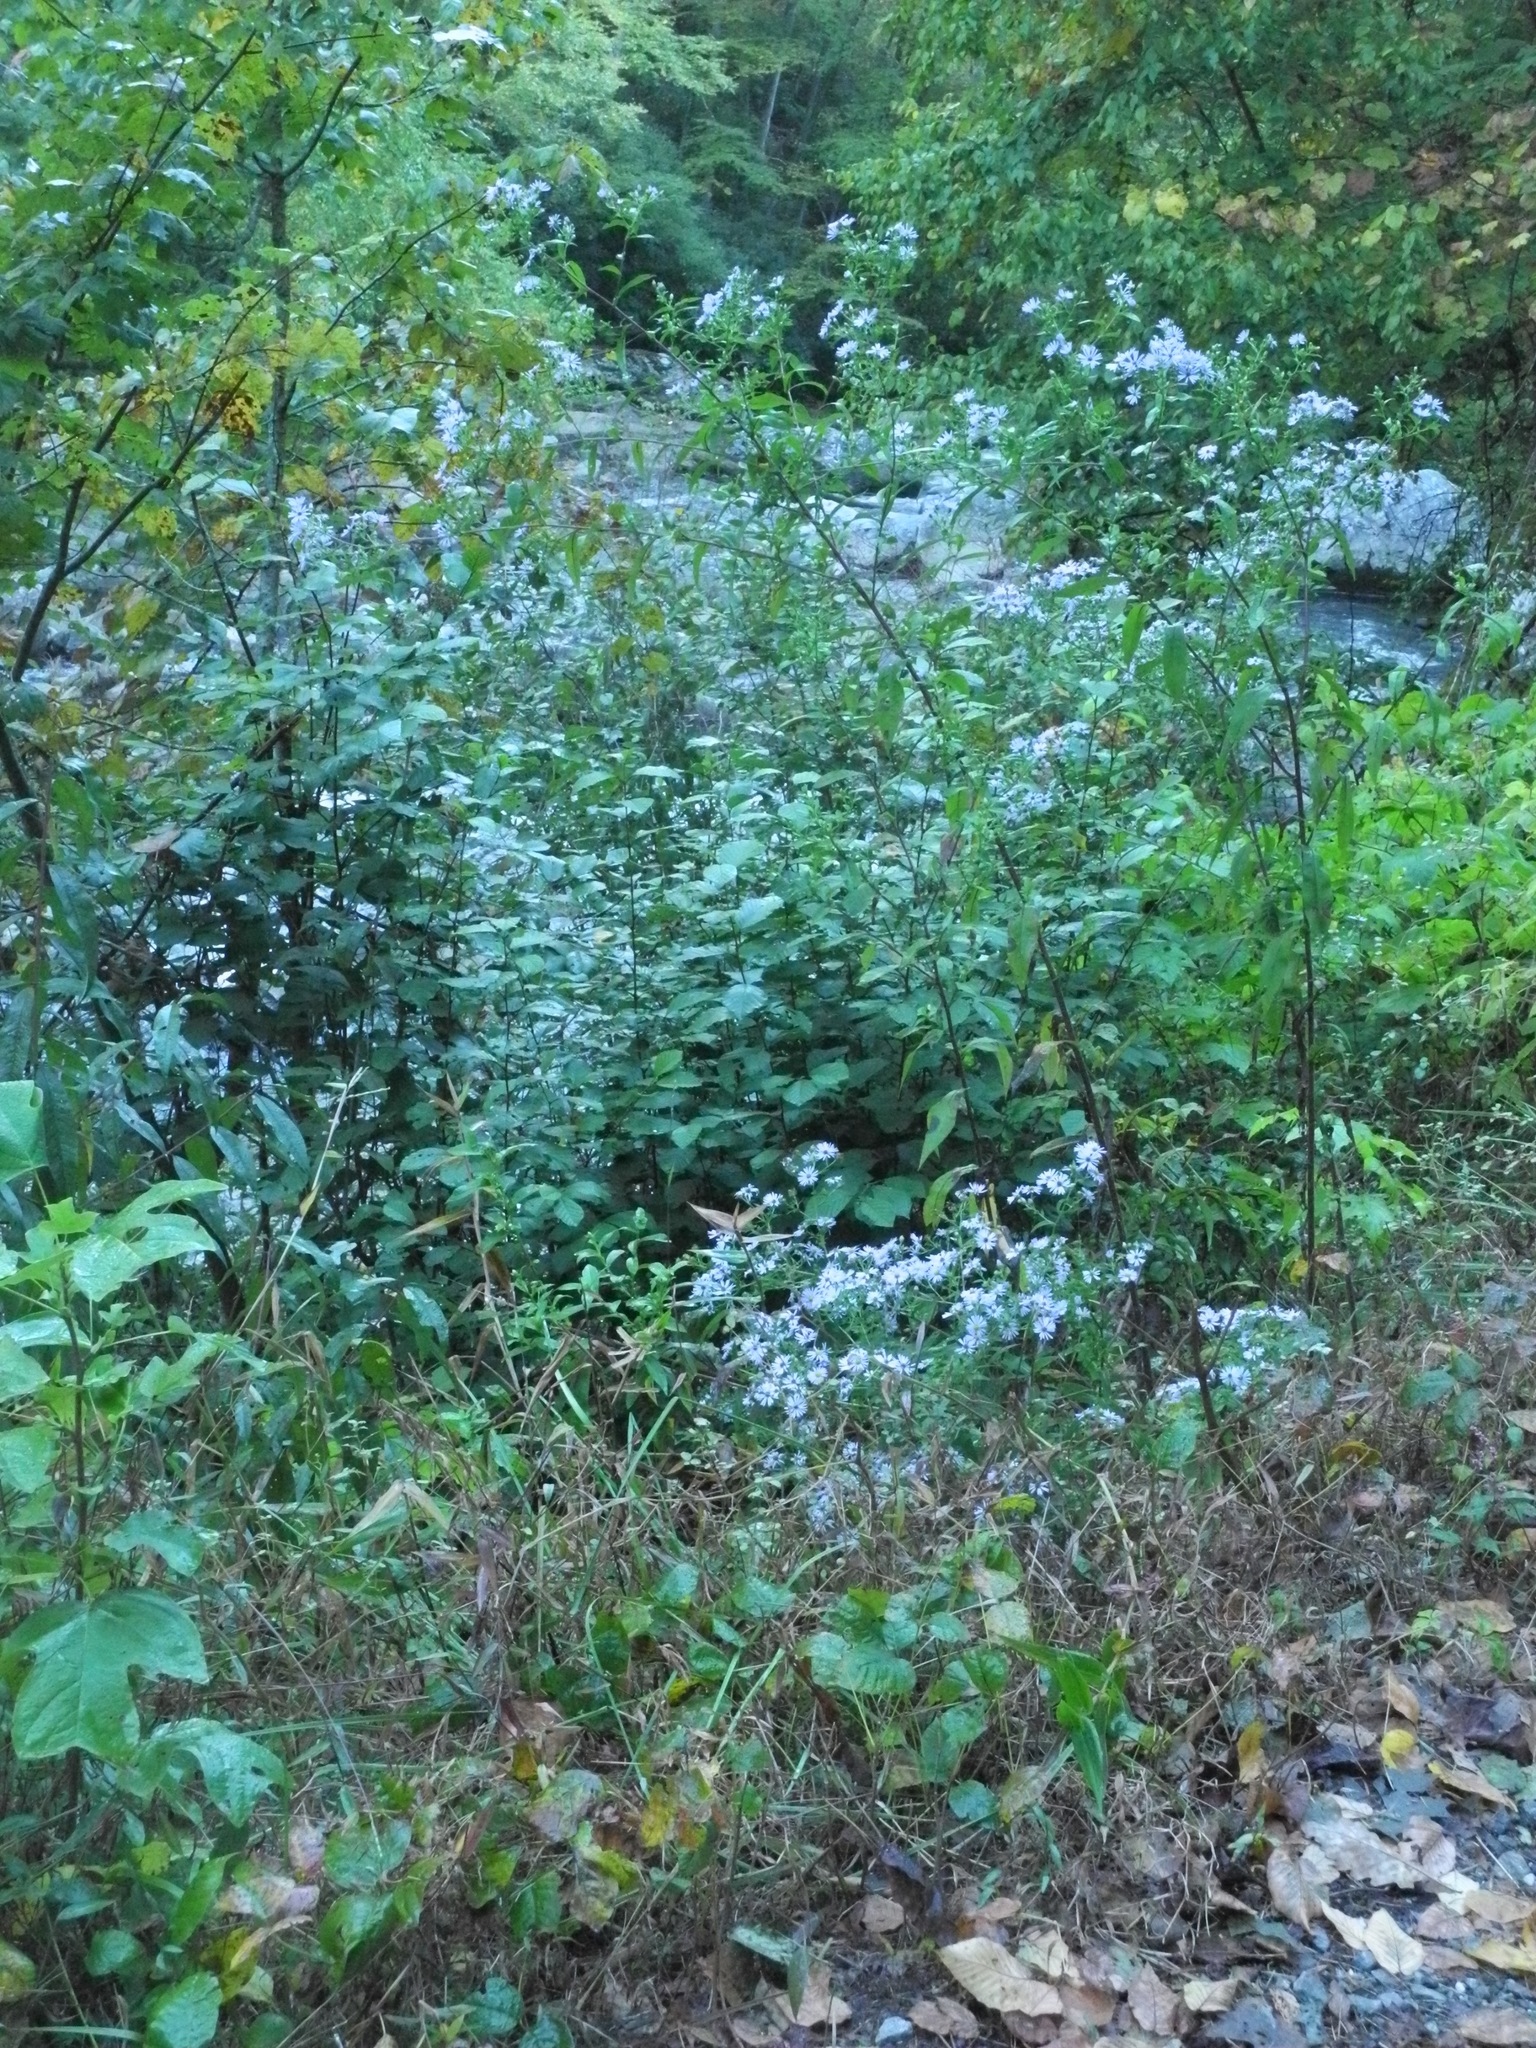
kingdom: Plantae
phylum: Tracheophyta
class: Magnoliopsida
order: Asterales
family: Asteraceae
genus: Symphyotrichum
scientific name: Symphyotrichum puniceum
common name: Bog aster
